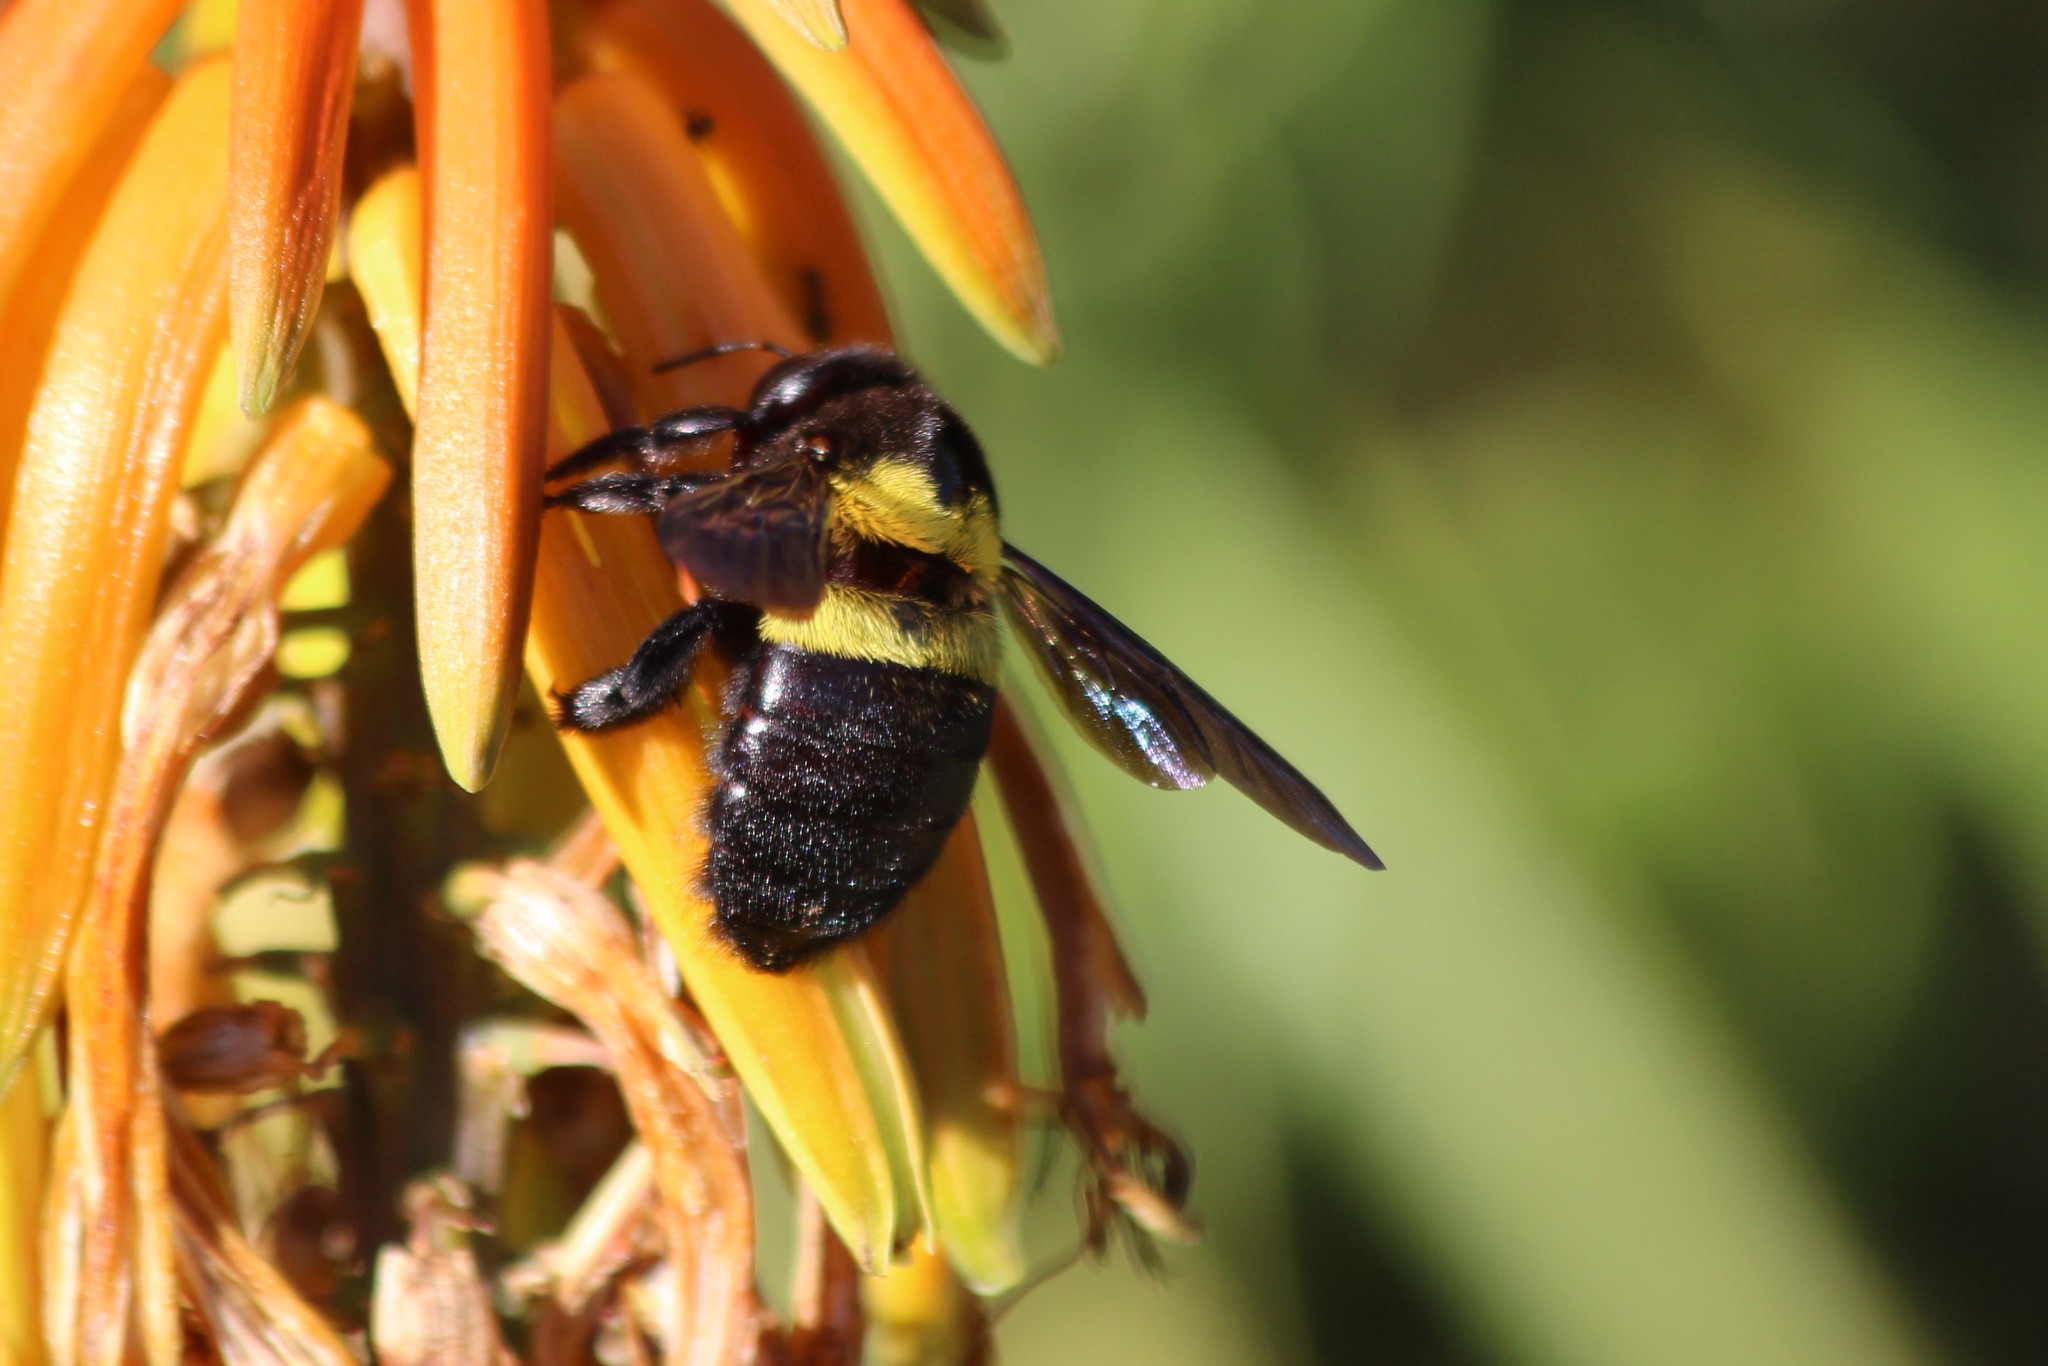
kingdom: Animalia
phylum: Arthropoda
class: Insecta
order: Hymenoptera
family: Apidae
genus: Xylocopa
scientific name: Xylocopa caffra
